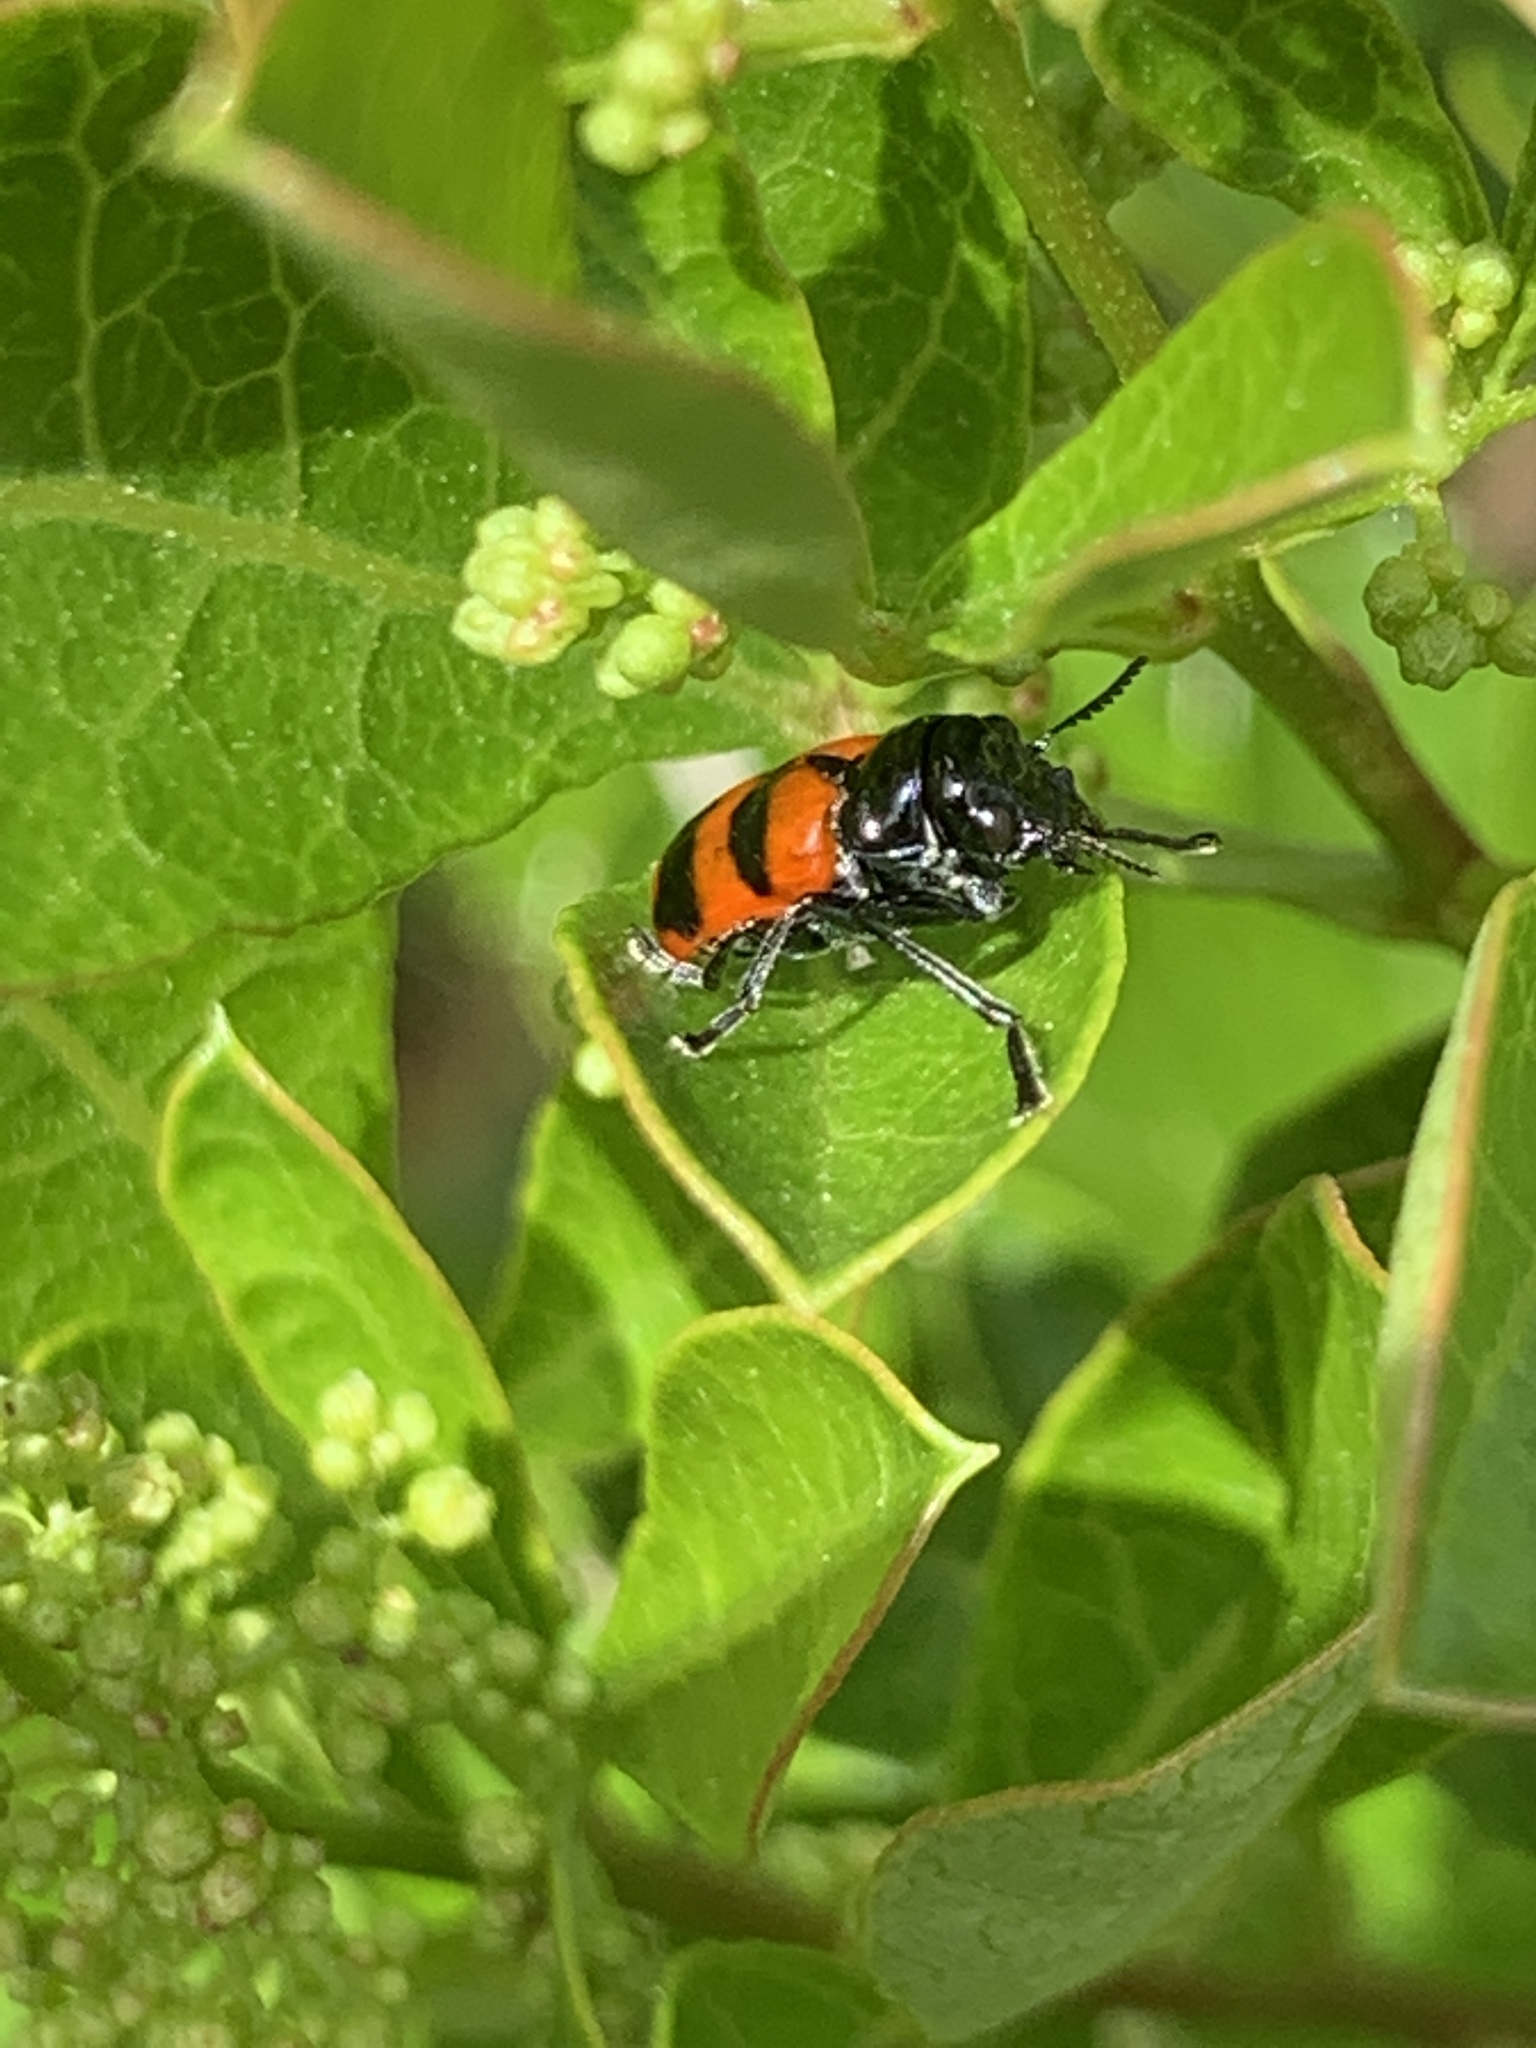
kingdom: Animalia
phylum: Arthropoda
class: Insecta
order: Coleoptera
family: Chrysomelidae
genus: Merilia
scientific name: Merilia
